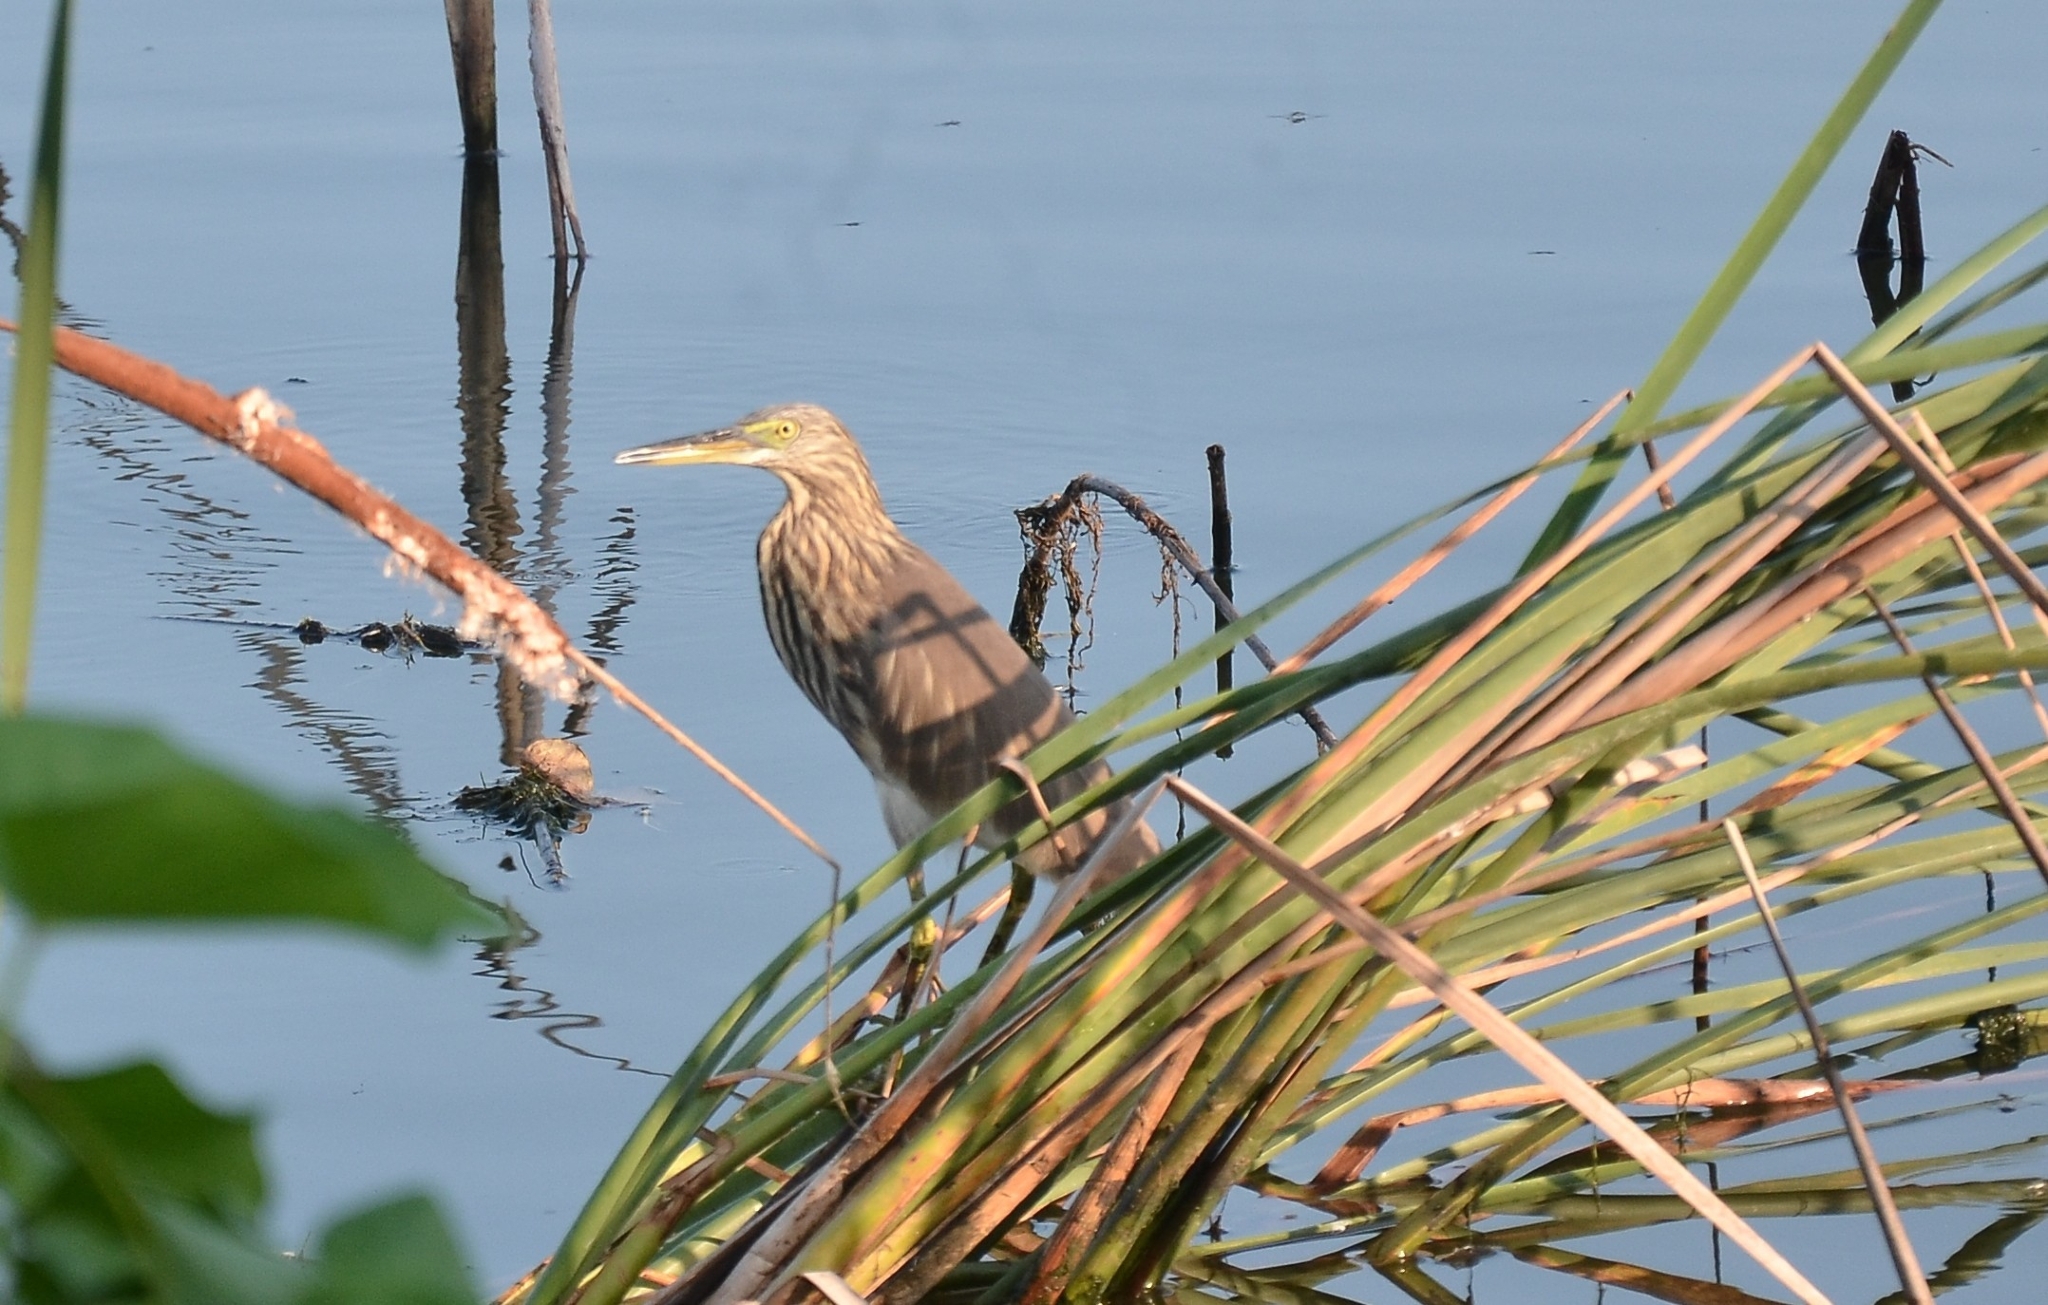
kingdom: Animalia
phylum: Chordata
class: Aves
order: Pelecaniformes
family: Ardeidae
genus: Ardeola
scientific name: Ardeola grayii
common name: Indian pond heron
